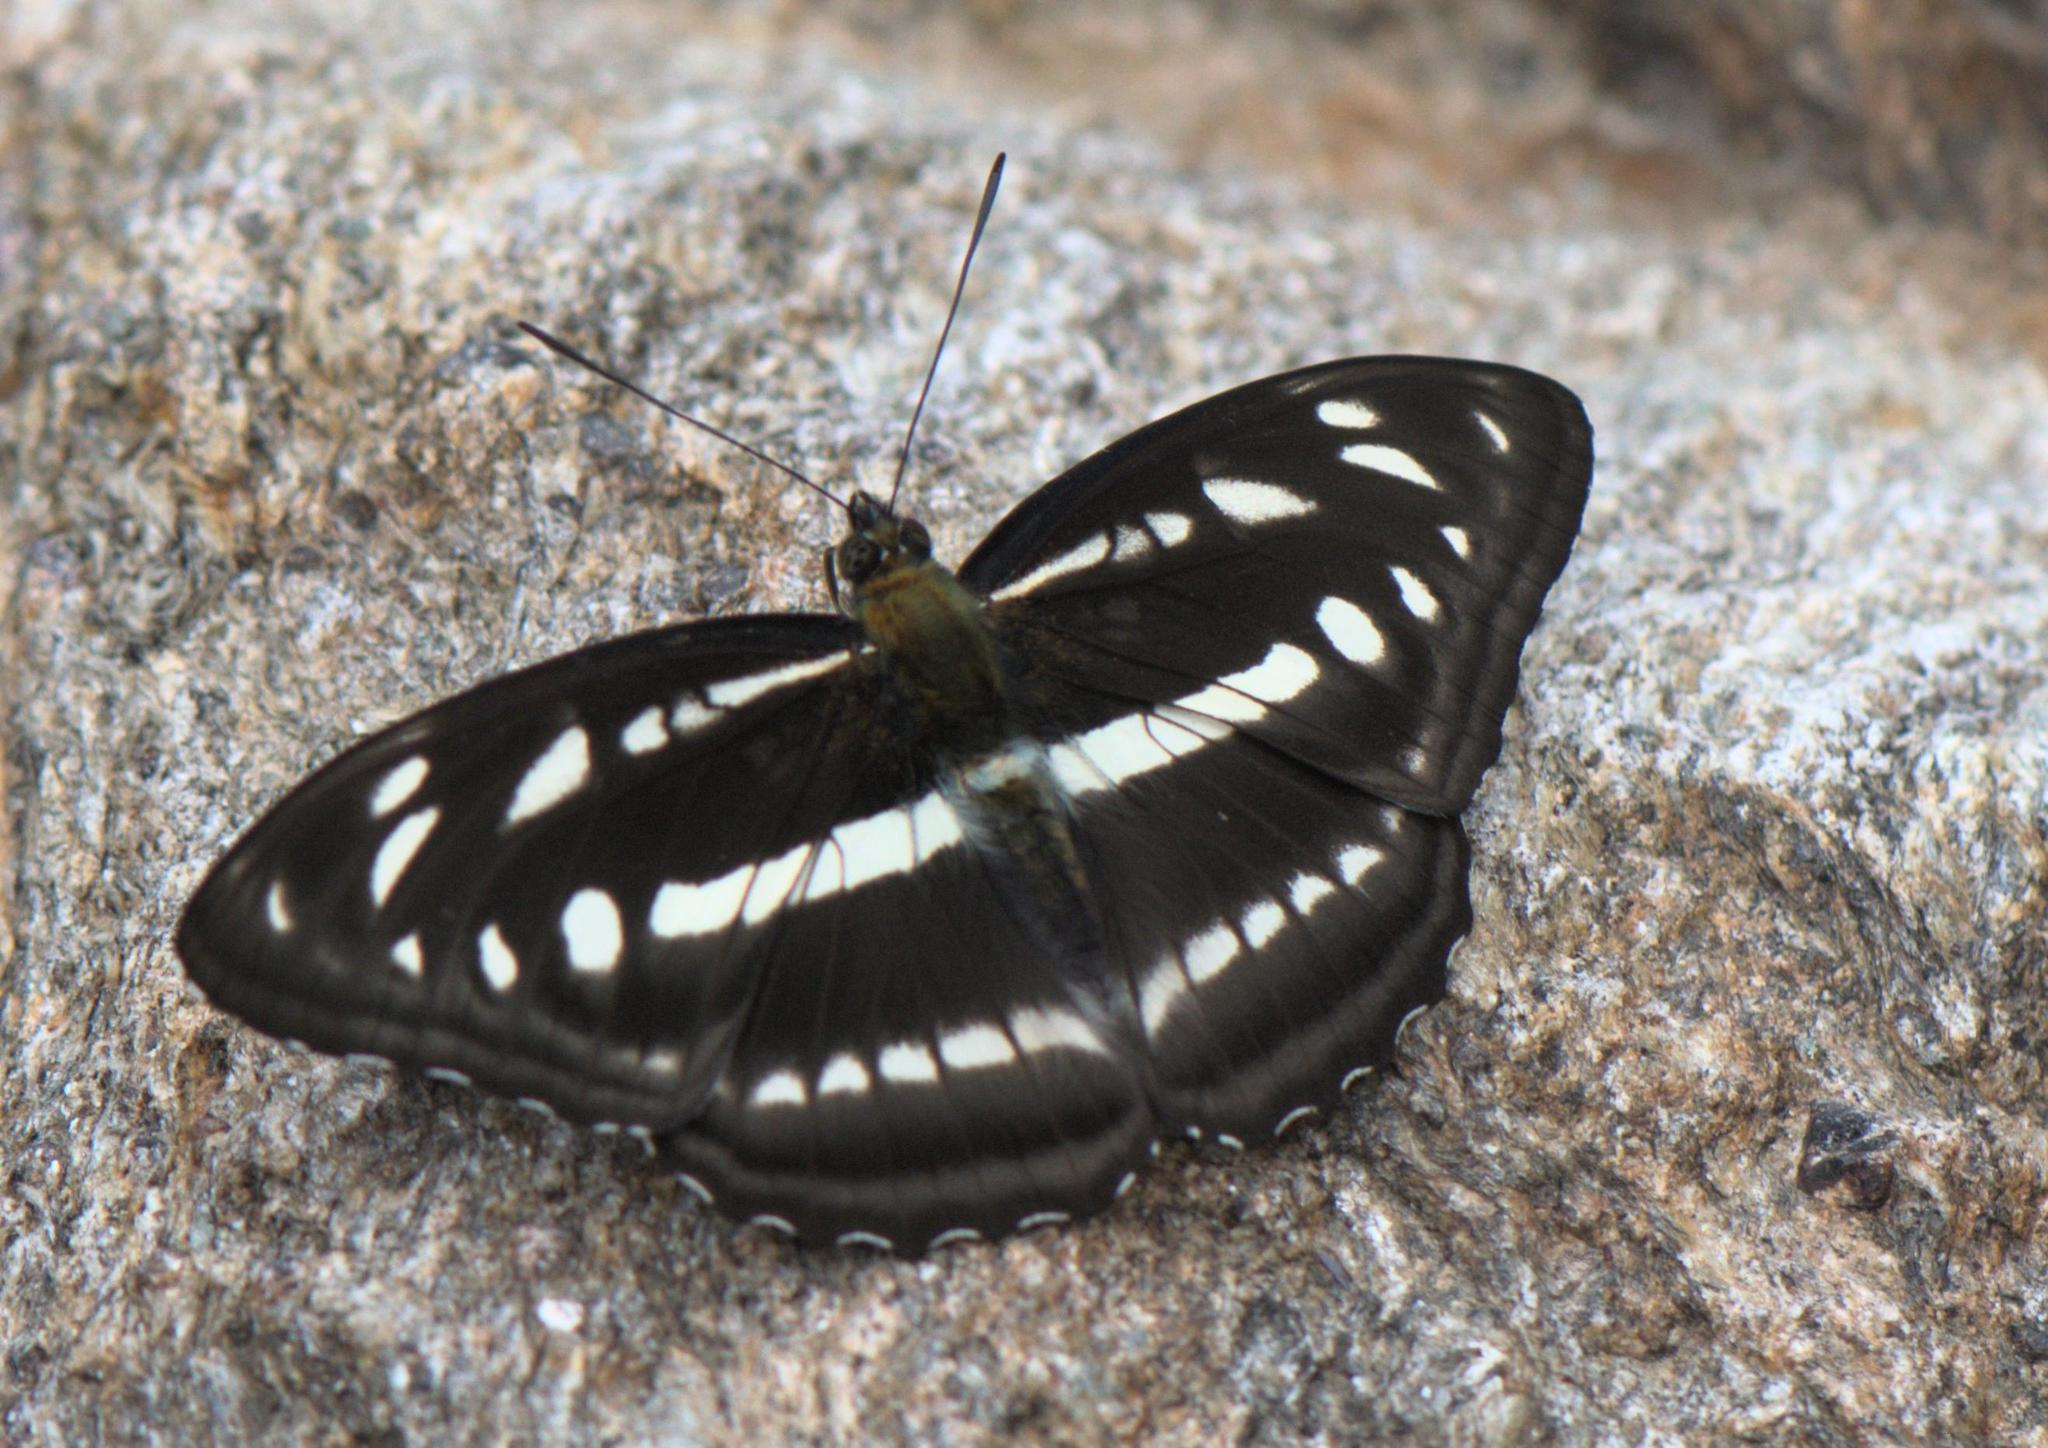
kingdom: Animalia
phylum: Arthropoda
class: Insecta
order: Lepidoptera
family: Nymphalidae
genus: Parathyma
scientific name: Parathyma opalina
